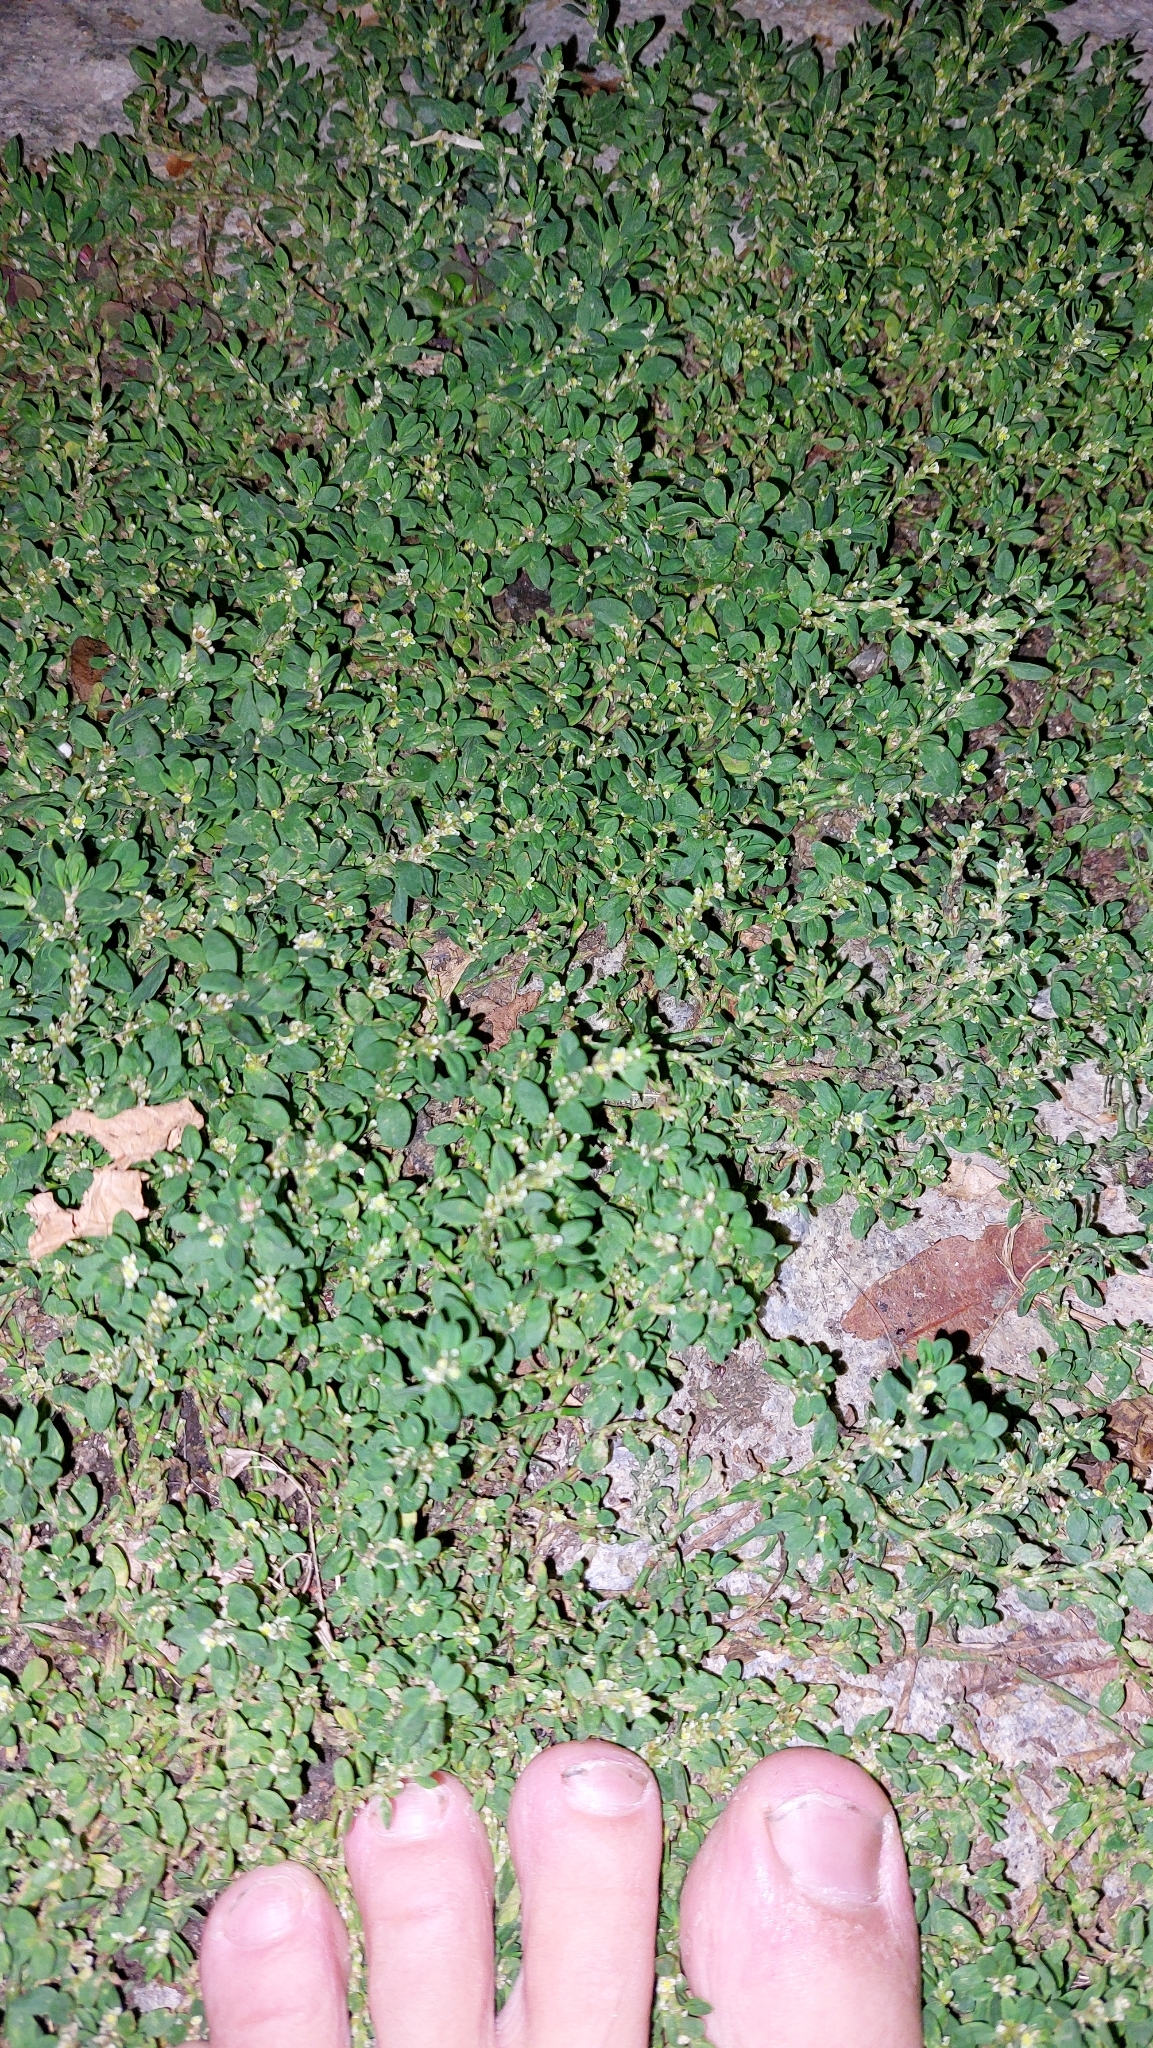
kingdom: Plantae
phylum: Tracheophyta
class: Magnoliopsida
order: Caryophyllales
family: Polygonaceae
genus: Polygonum
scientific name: Polygonum arenastrum
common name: Equal-leaved knotgrass
